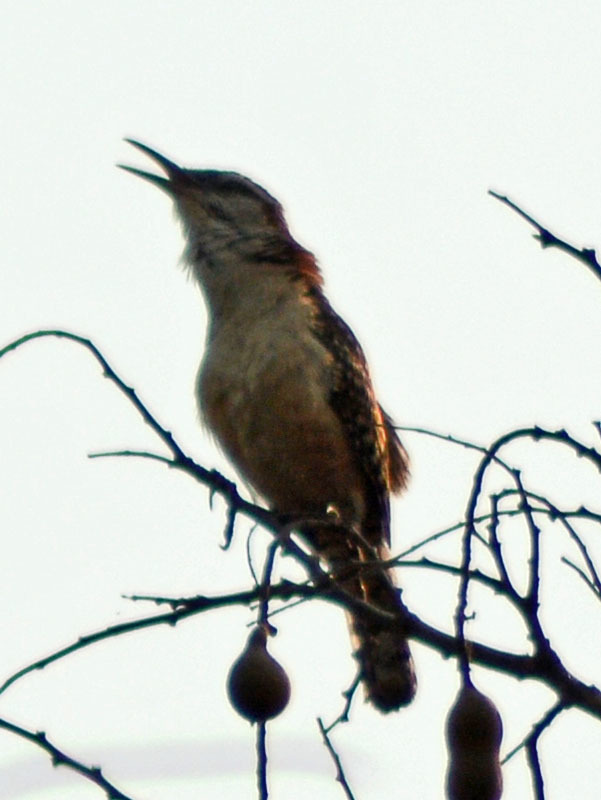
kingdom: Animalia
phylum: Chordata
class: Aves
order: Passeriformes
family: Troglodytidae
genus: Campylorhynchus
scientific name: Campylorhynchus rufinucha
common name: Rufous-naped wren
